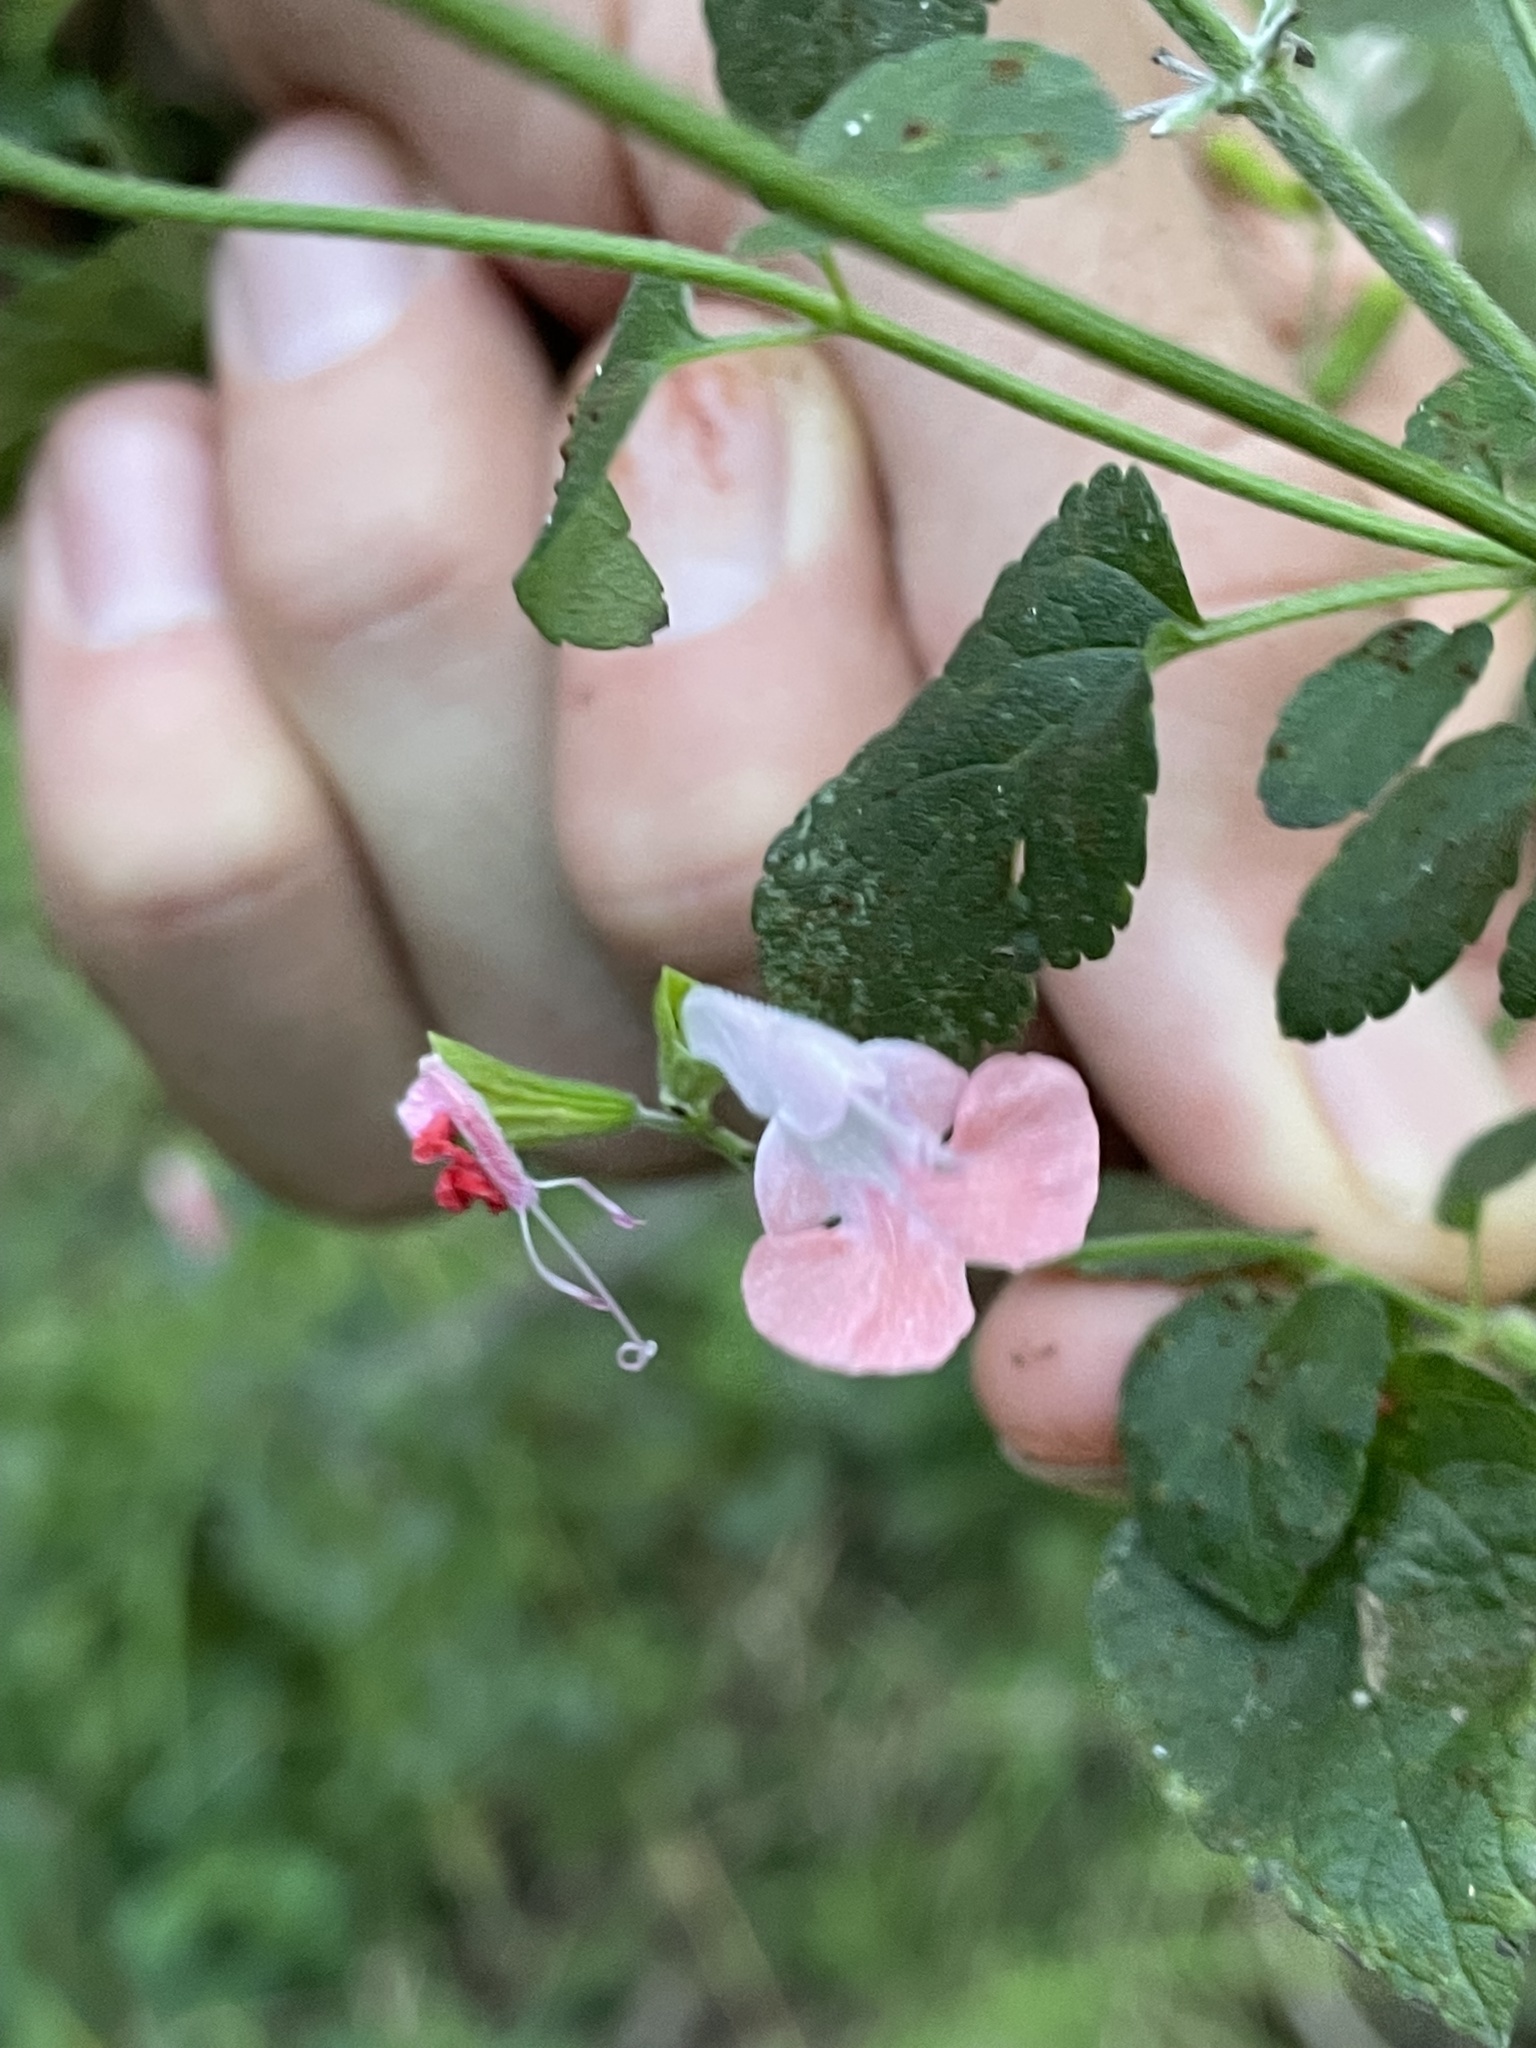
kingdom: Plantae
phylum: Tracheophyta
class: Magnoliopsida
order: Lamiales
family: Lamiaceae
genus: Salvia
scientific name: Salvia coccinea
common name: Blood sage
